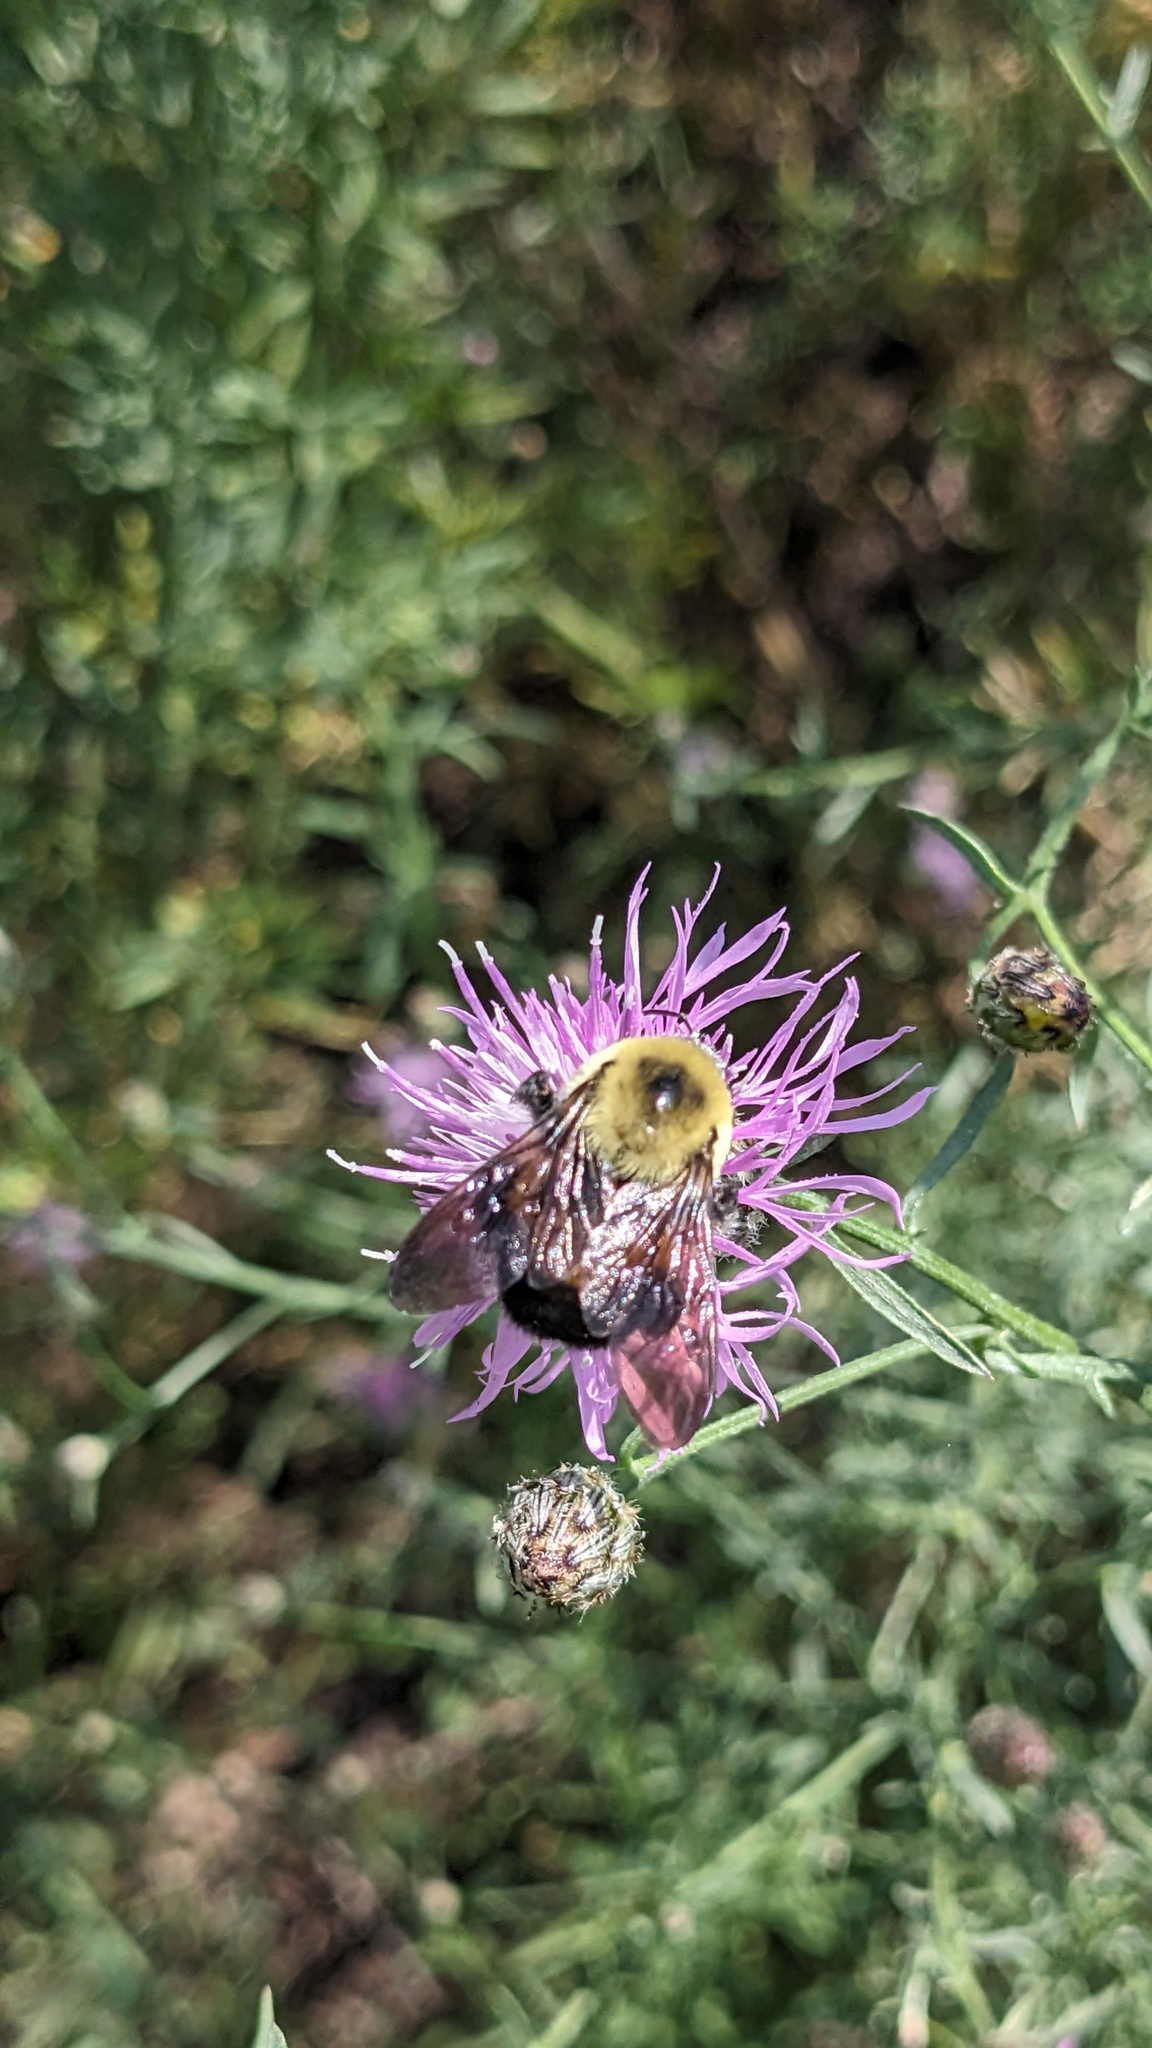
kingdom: Animalia
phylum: Arthropoda
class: Insecta
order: Hymenoptera
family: Apidae
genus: Bombus
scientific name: Bombus griseocollis
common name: Brown-belted bumble bee
